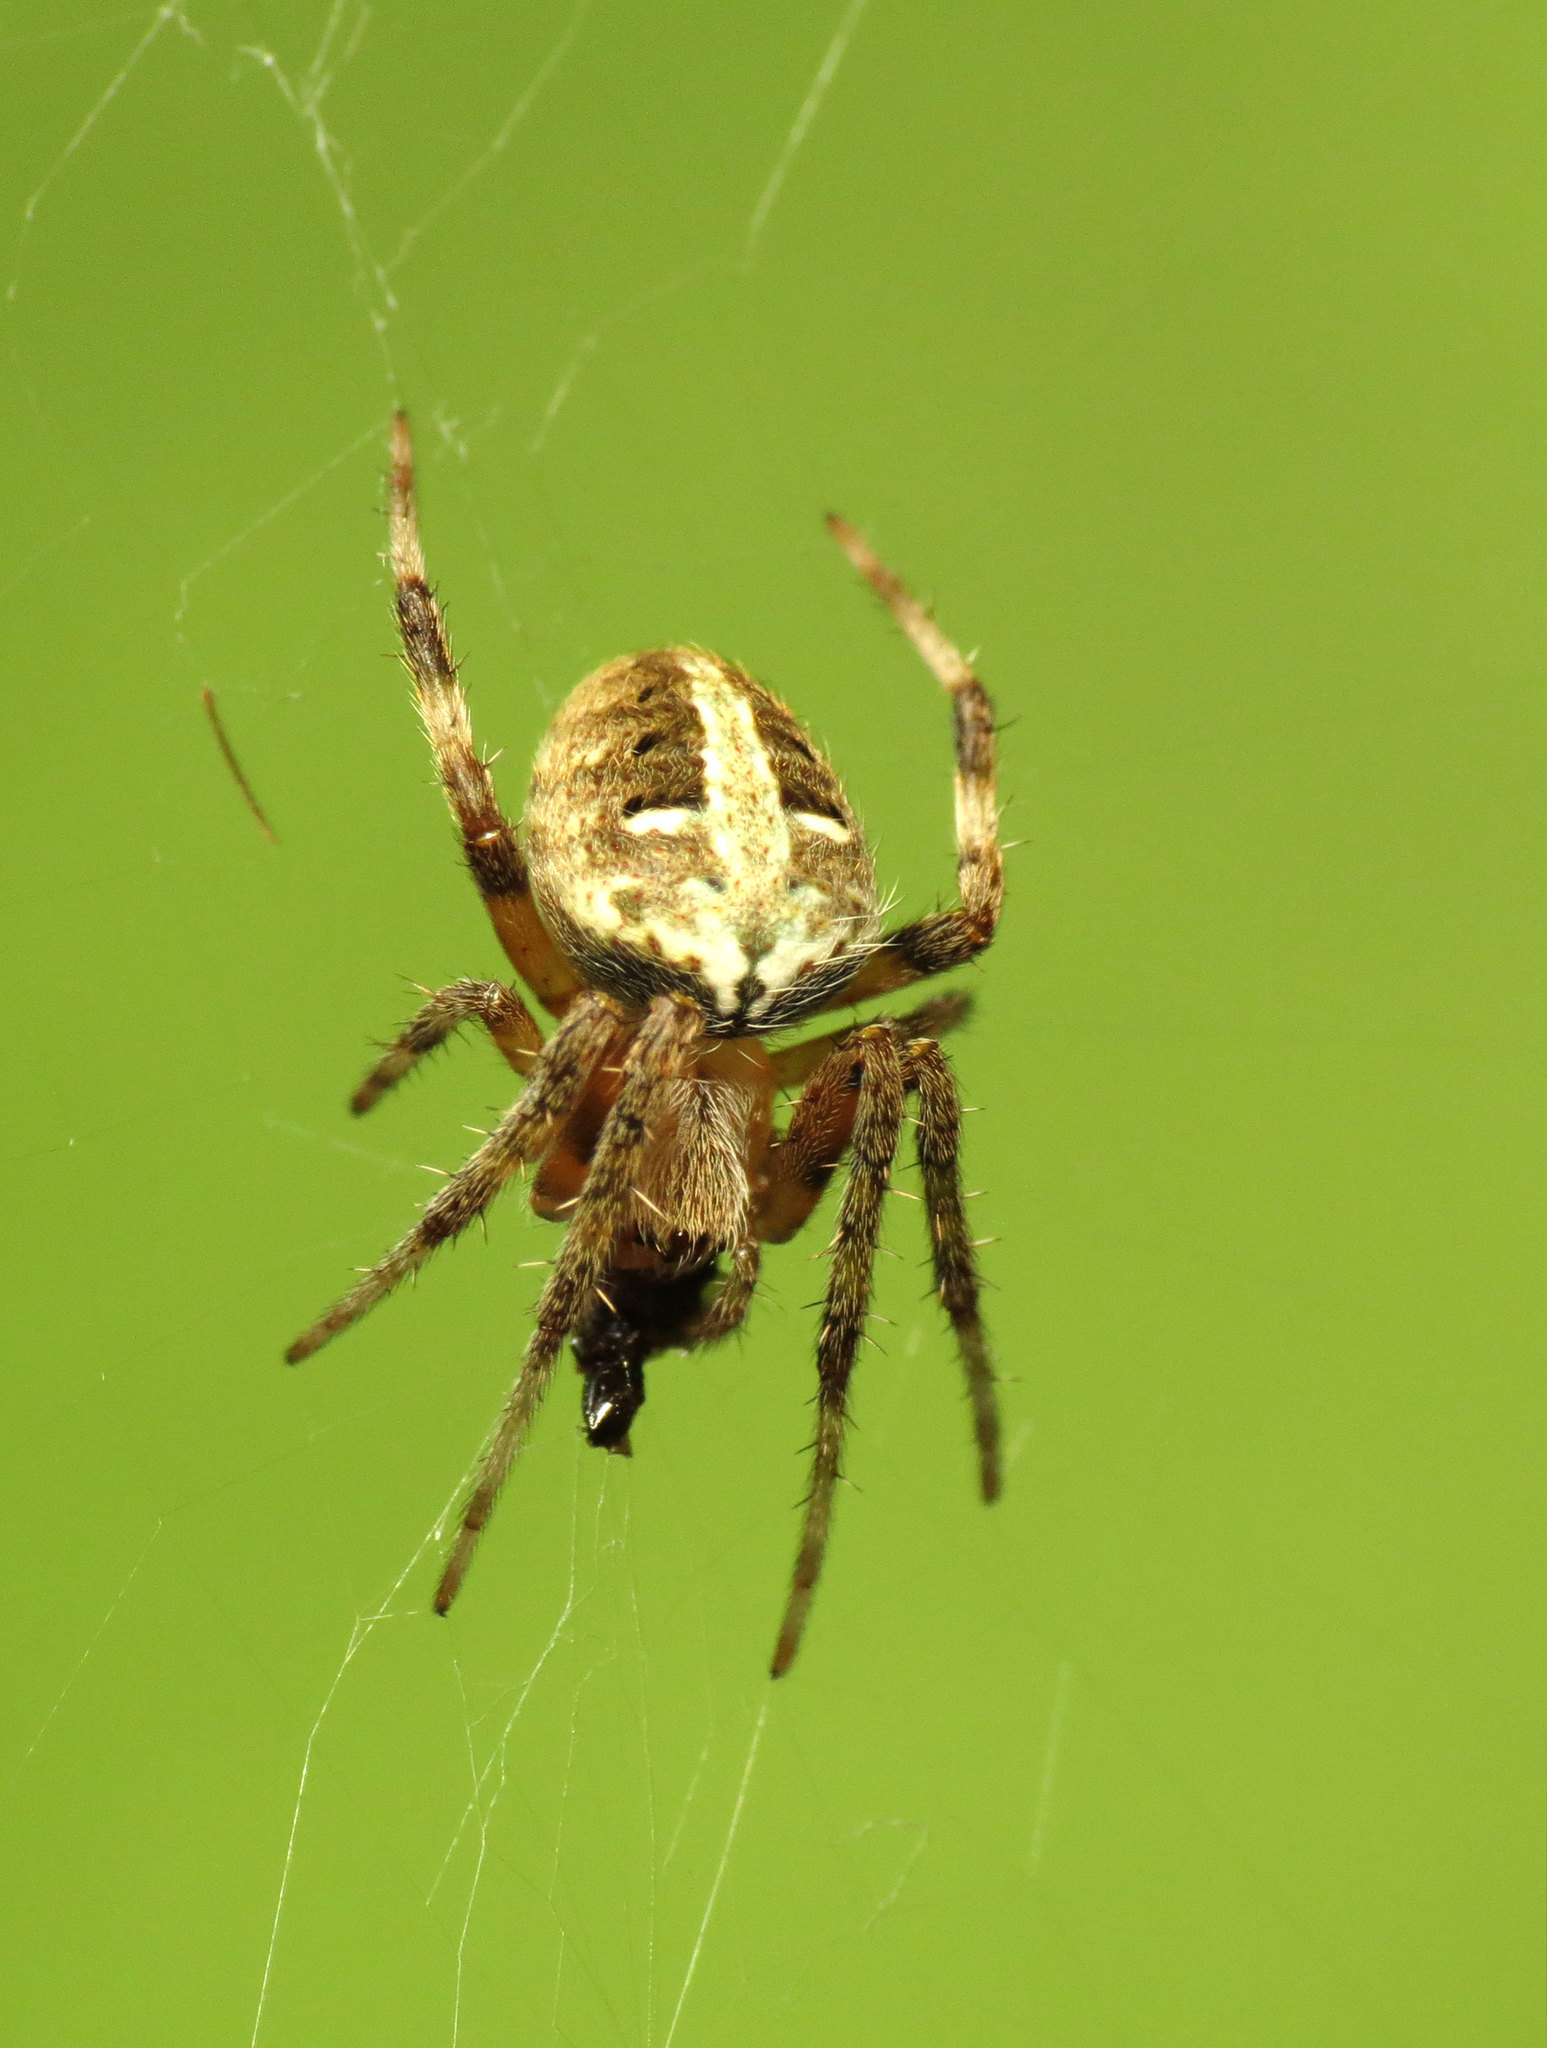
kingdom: Animalia
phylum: Arthropoda
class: Arachnida
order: Araneae
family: Araneidae
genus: Neoscona
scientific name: Neoscona domiciliorum
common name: Red-femured spotted orbweaver
